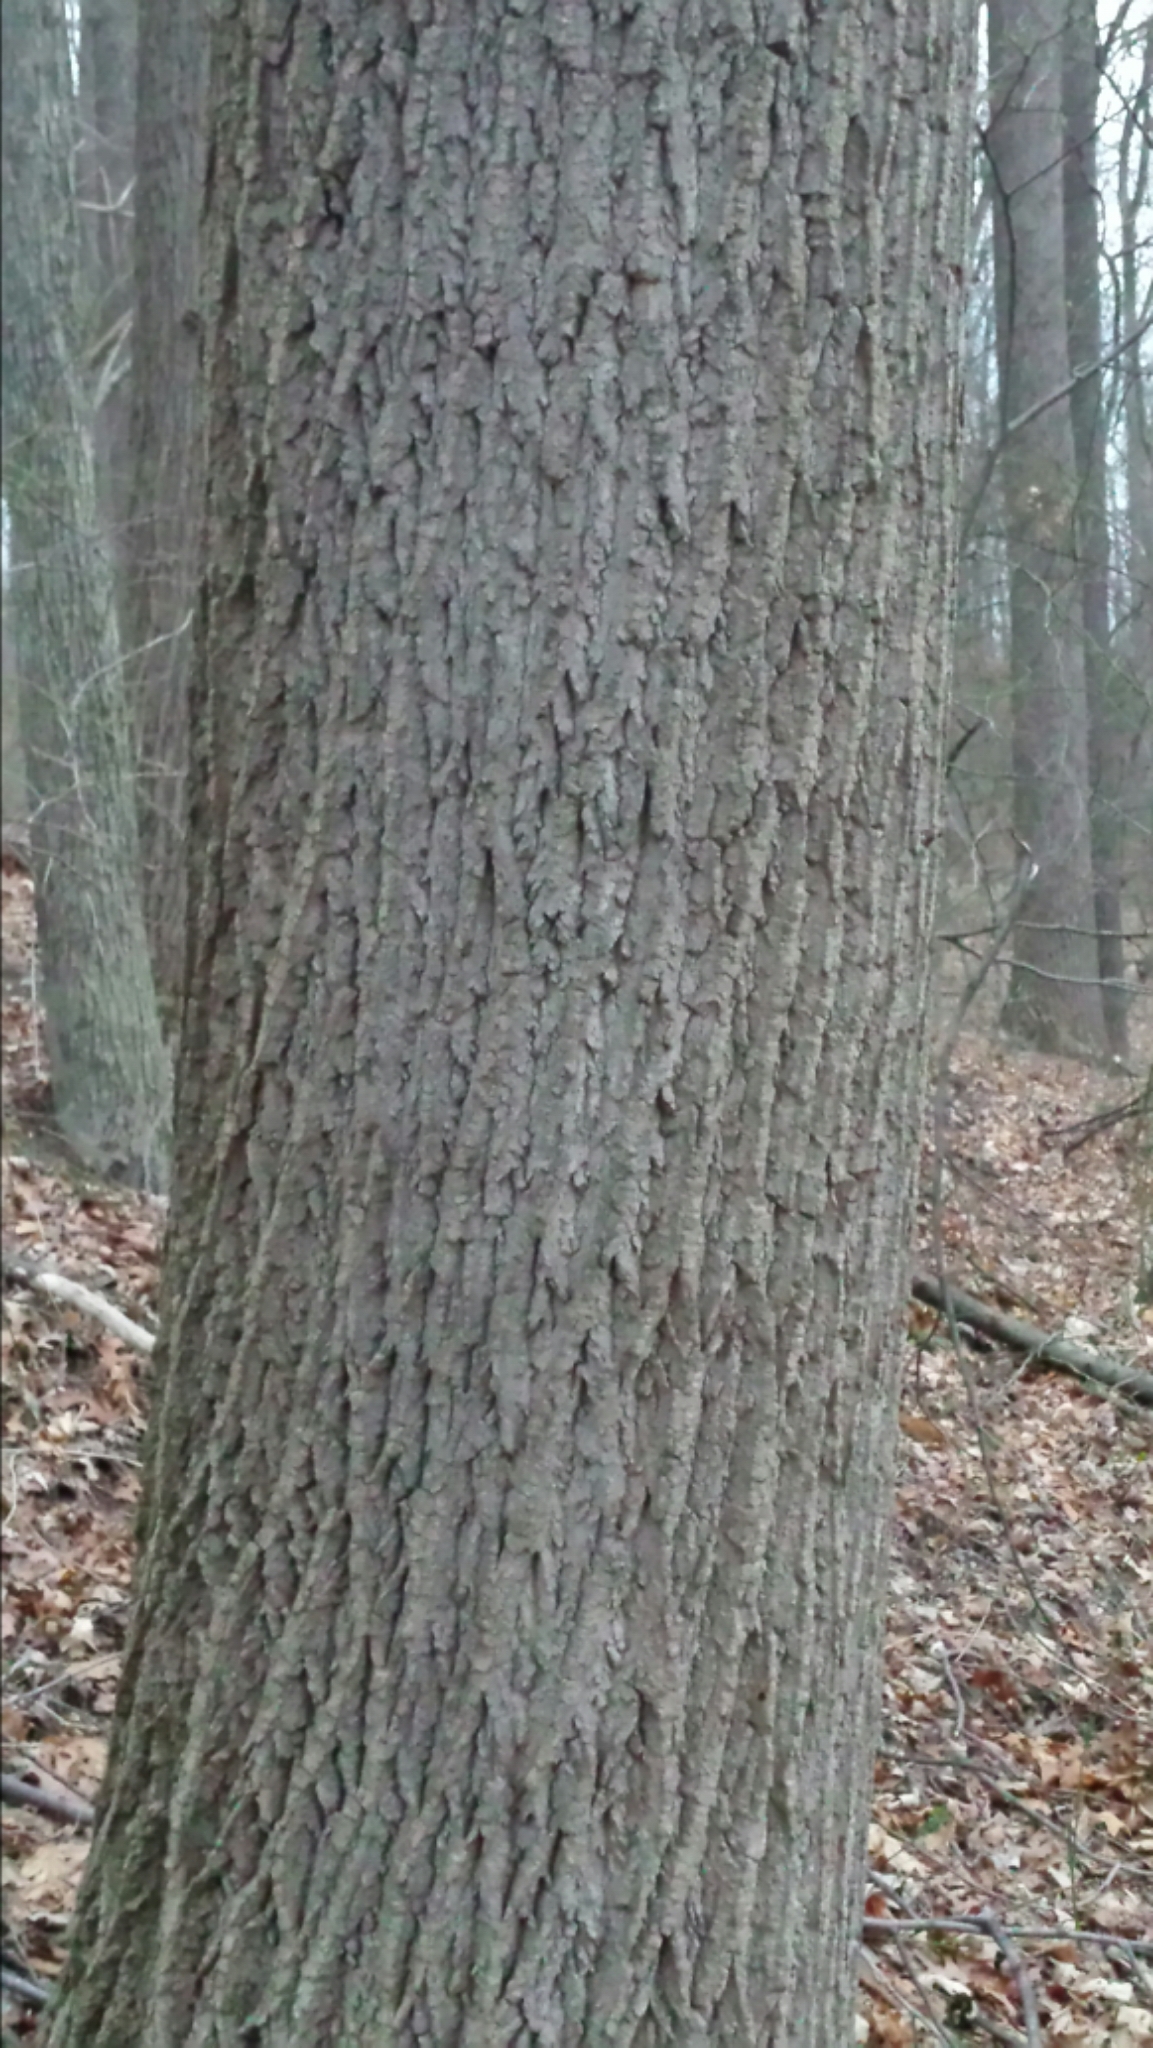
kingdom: Plantae
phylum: Tracheophyta
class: Magnoliopsida
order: Magnoliales
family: Magnoliaceae
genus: Liriodendron
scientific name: Liriodendron tulipifera
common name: Tulip tree
